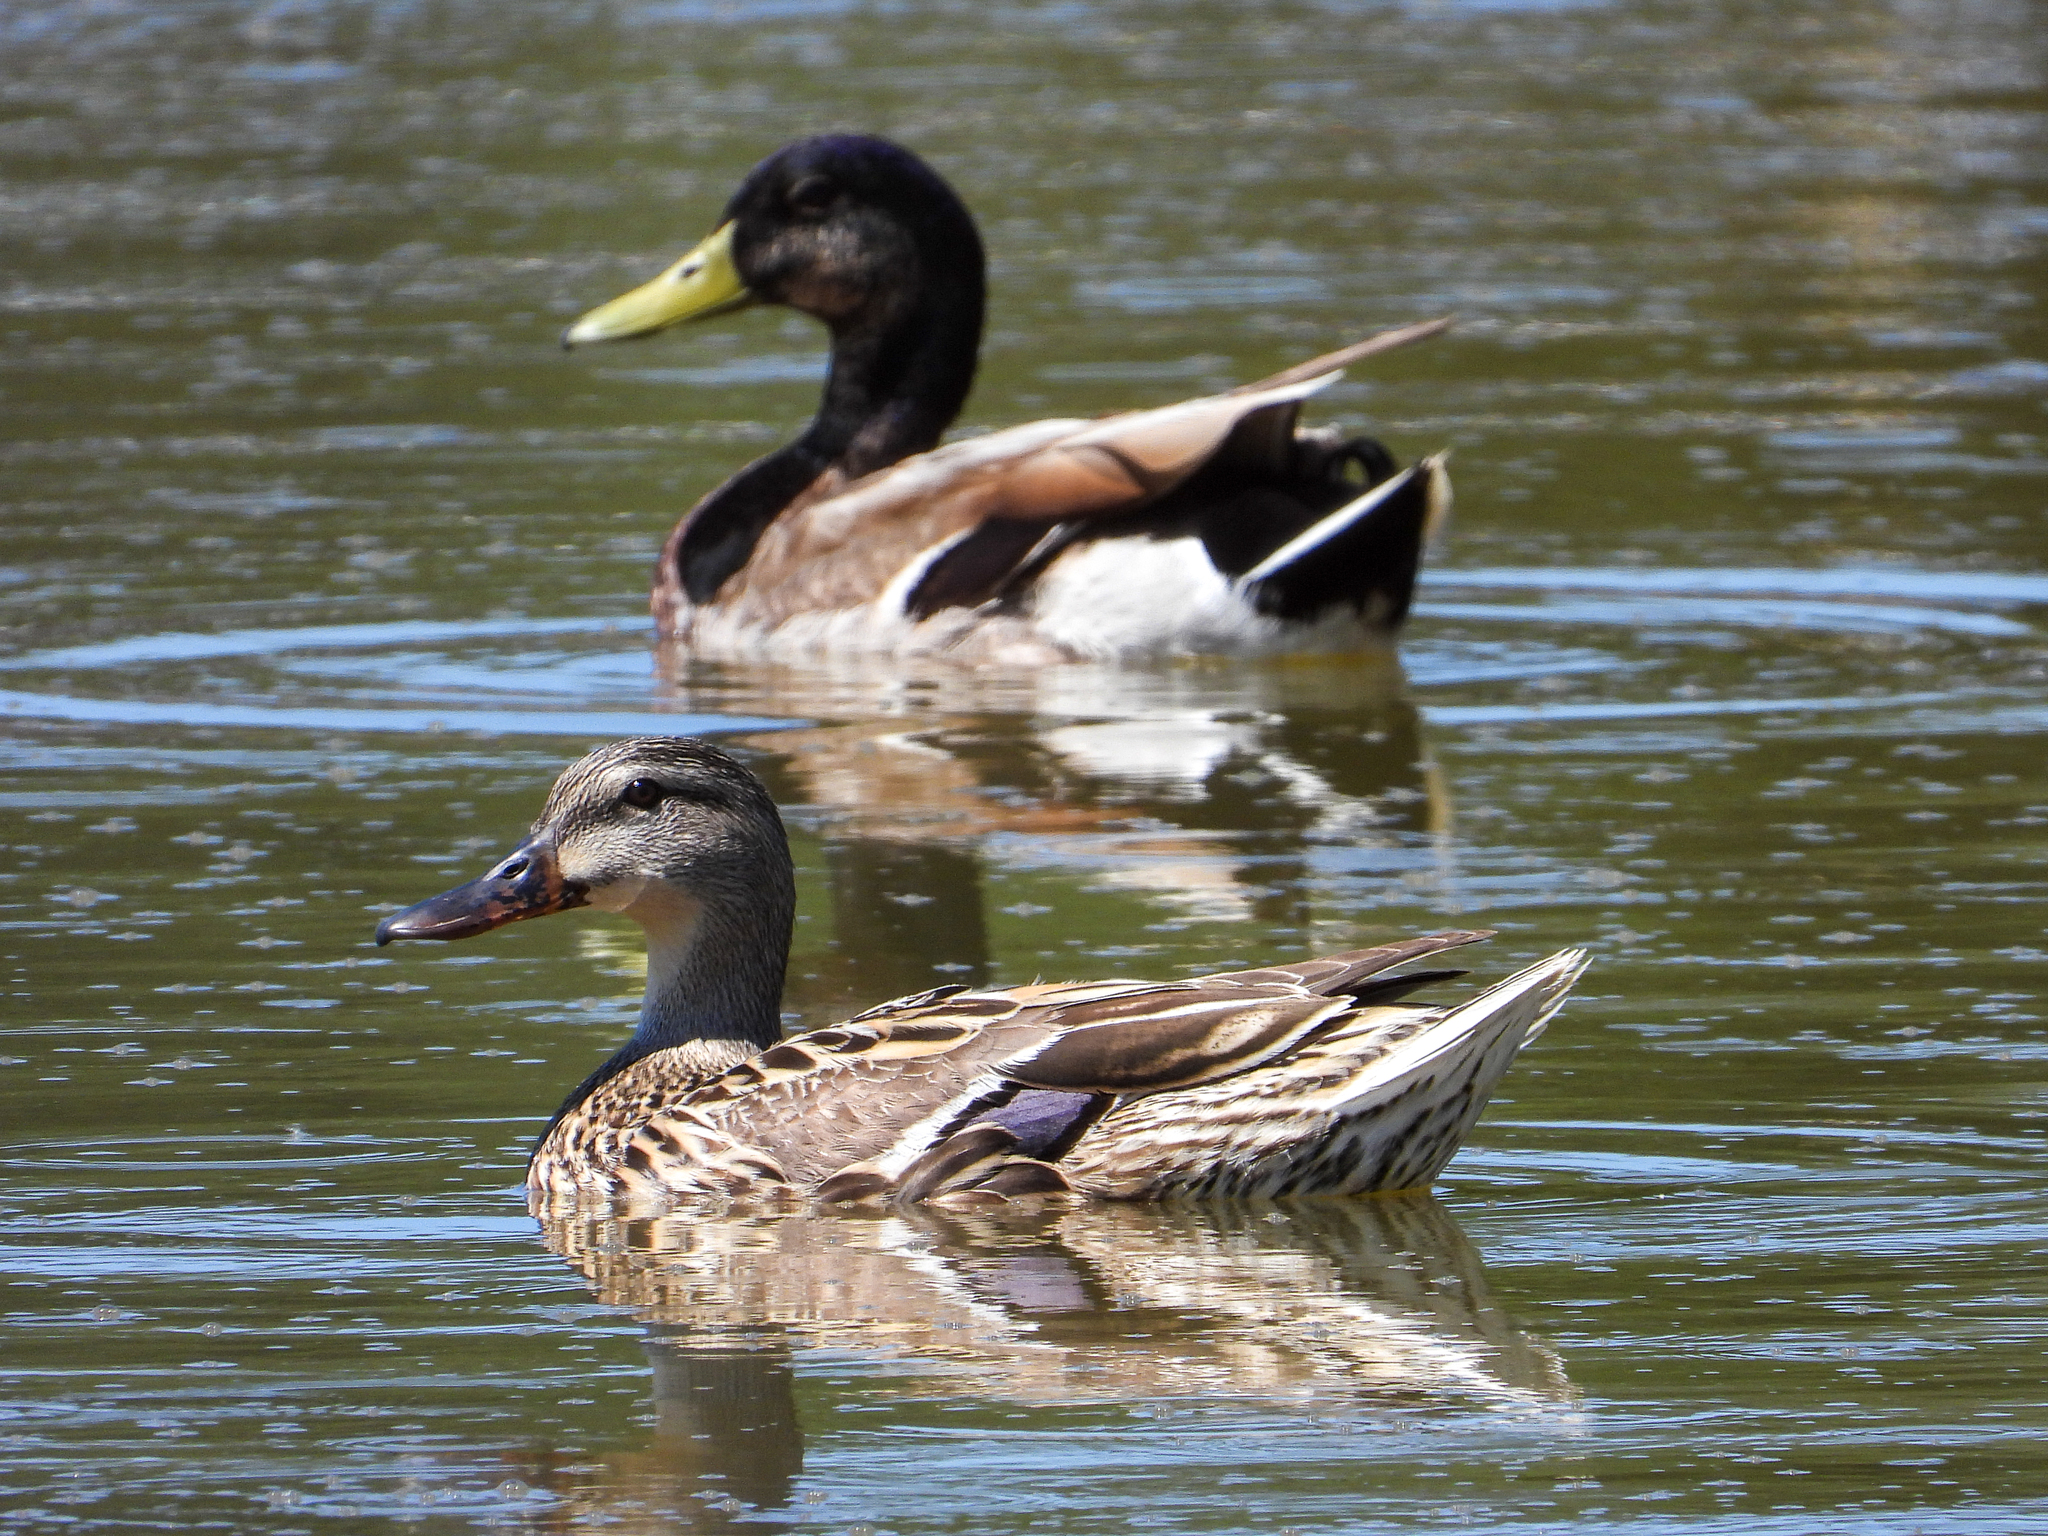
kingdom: Animalia
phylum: Chordata
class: Aves
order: Anseriformes
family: Anatidae
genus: Anas
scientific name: Anas platyrhynchos
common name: Mallard
